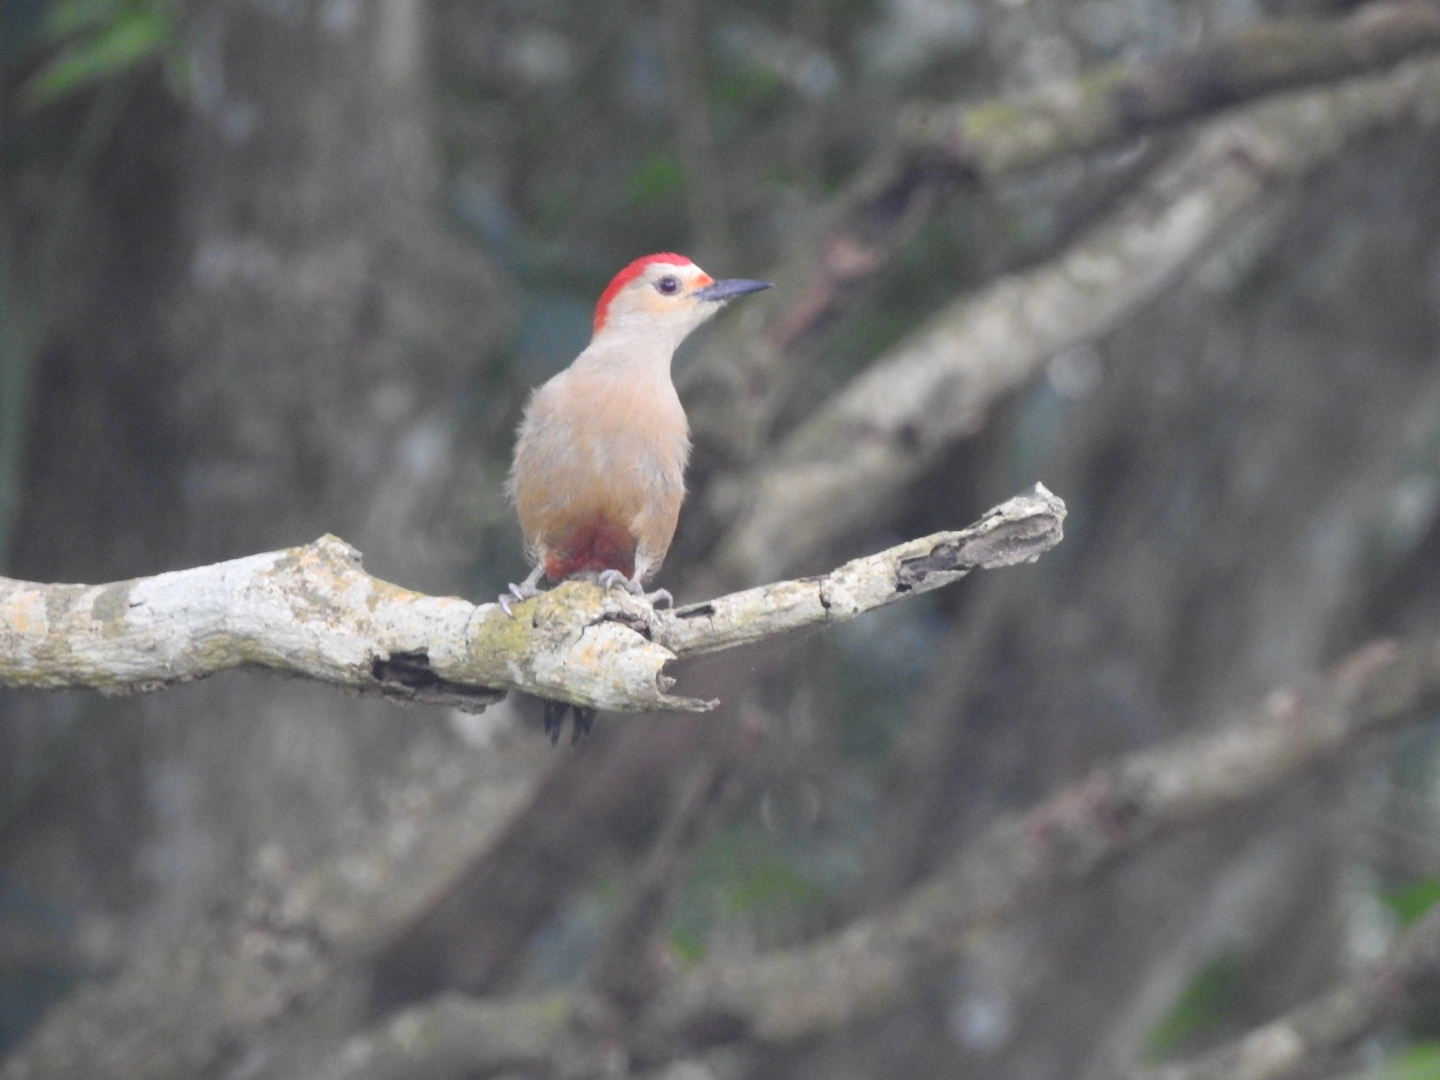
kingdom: Animalia
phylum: Chordata
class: Aves
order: Piciformes
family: Picidae
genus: Melanerpes
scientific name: Melanerpes aurifrons
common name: Golden-fronted woodpecker
